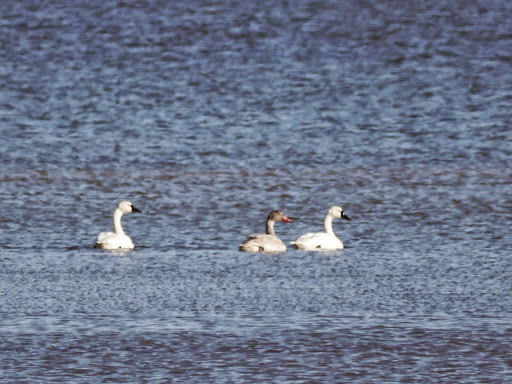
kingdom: Animalia
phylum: Chordata
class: Aves
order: Anseriformes
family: Anatidae
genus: Cygnus
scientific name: Cygnus columbianus
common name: Tundra swan
